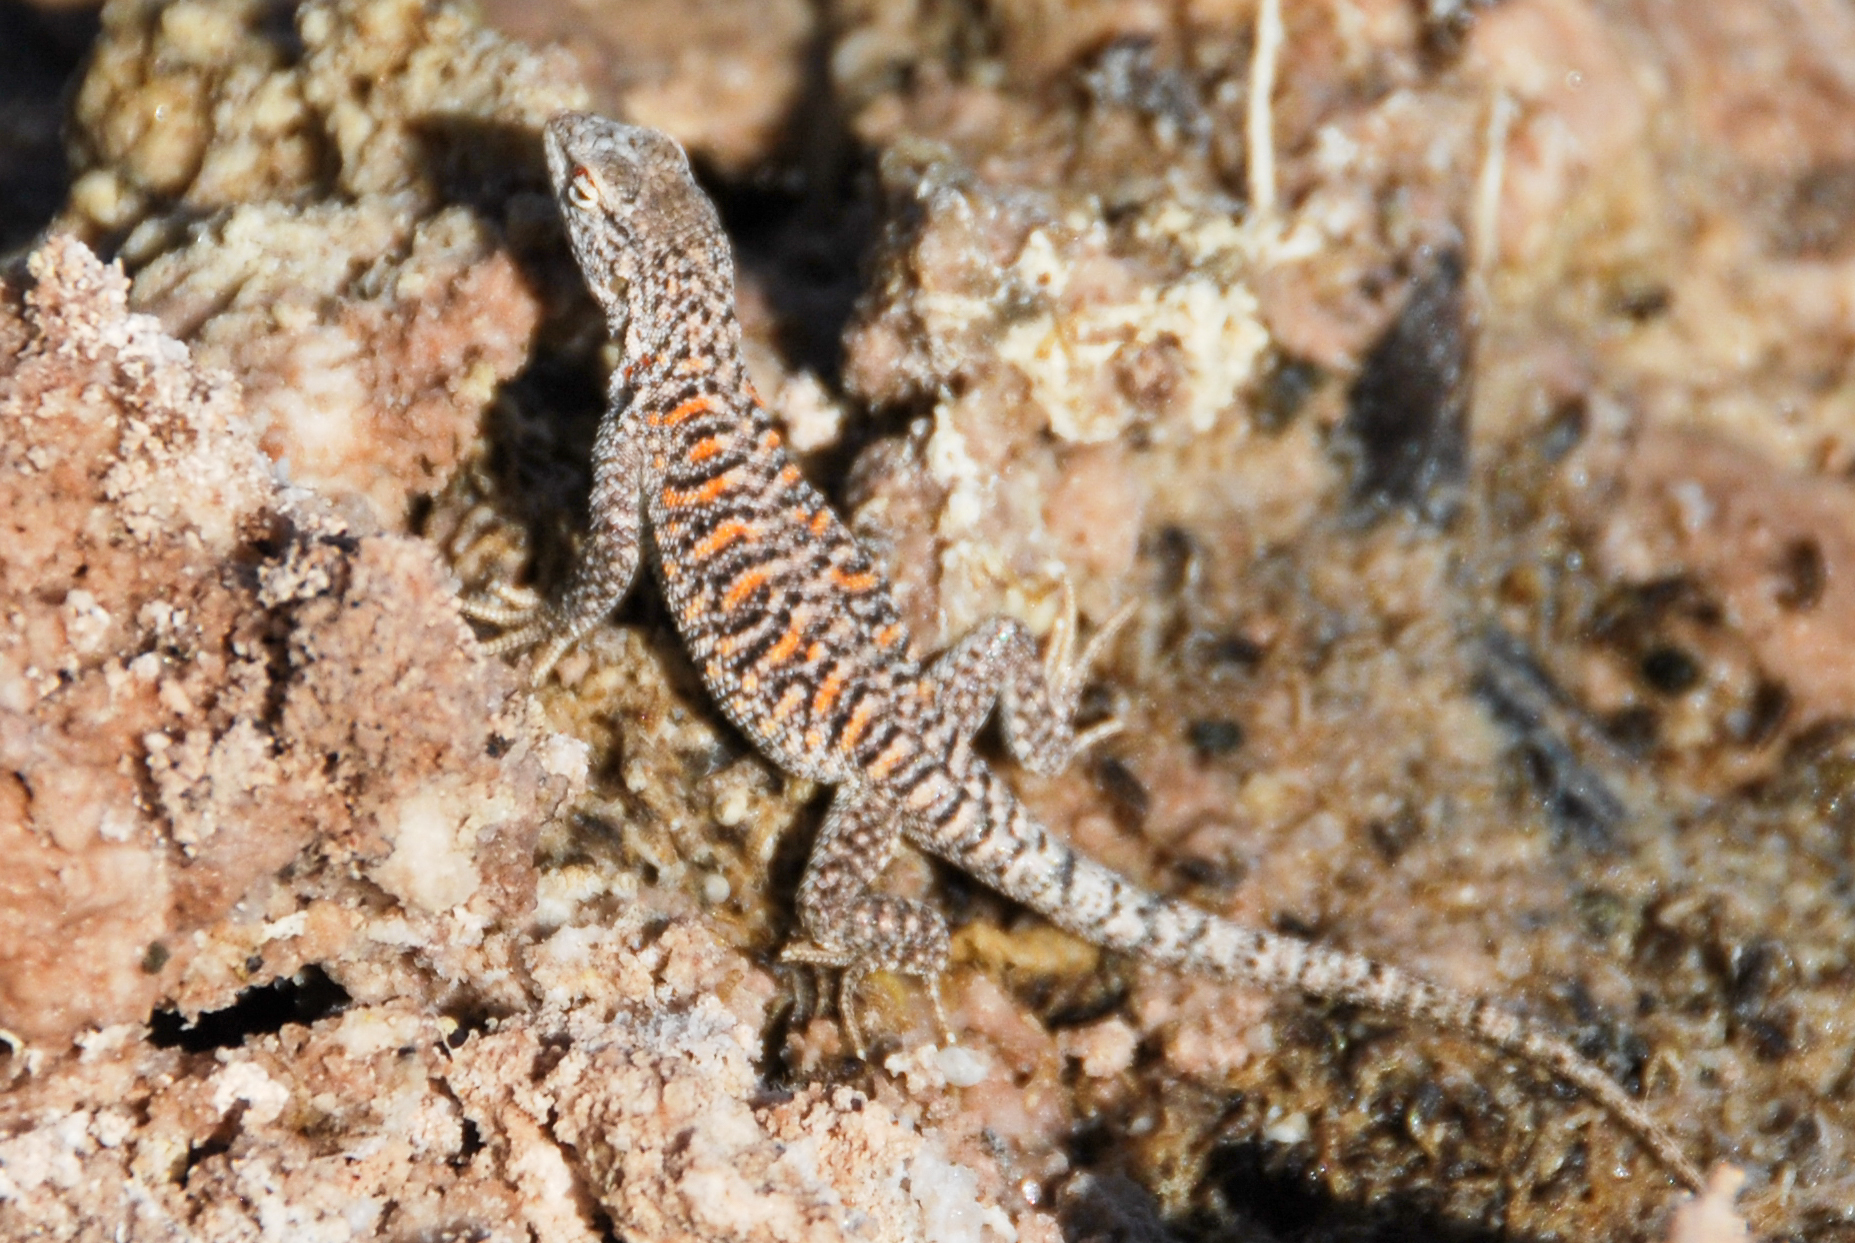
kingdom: Animalia
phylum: Chordata
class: Squamata
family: Liolaemidae
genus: Liolaemus
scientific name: Liolaemus fabiani
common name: Fabian’s lizard
